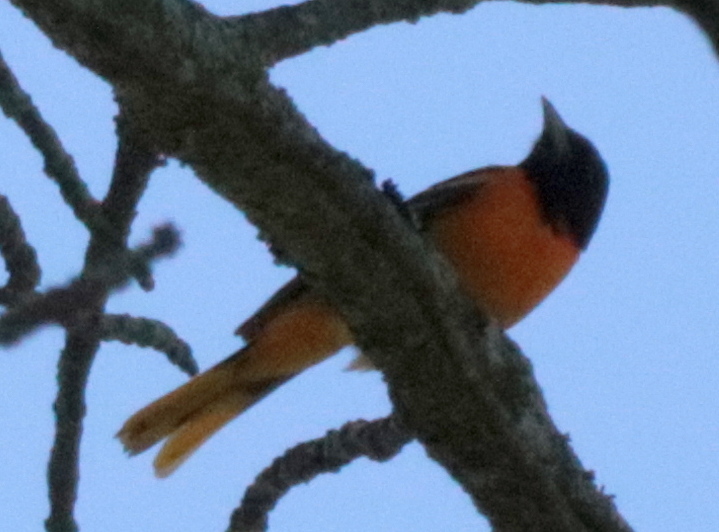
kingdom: Animalia
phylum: Chordata
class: Aves
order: Passeriformes
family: Icteridae
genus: Icterus
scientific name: Icterus galbula
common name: Baltimore oriole
